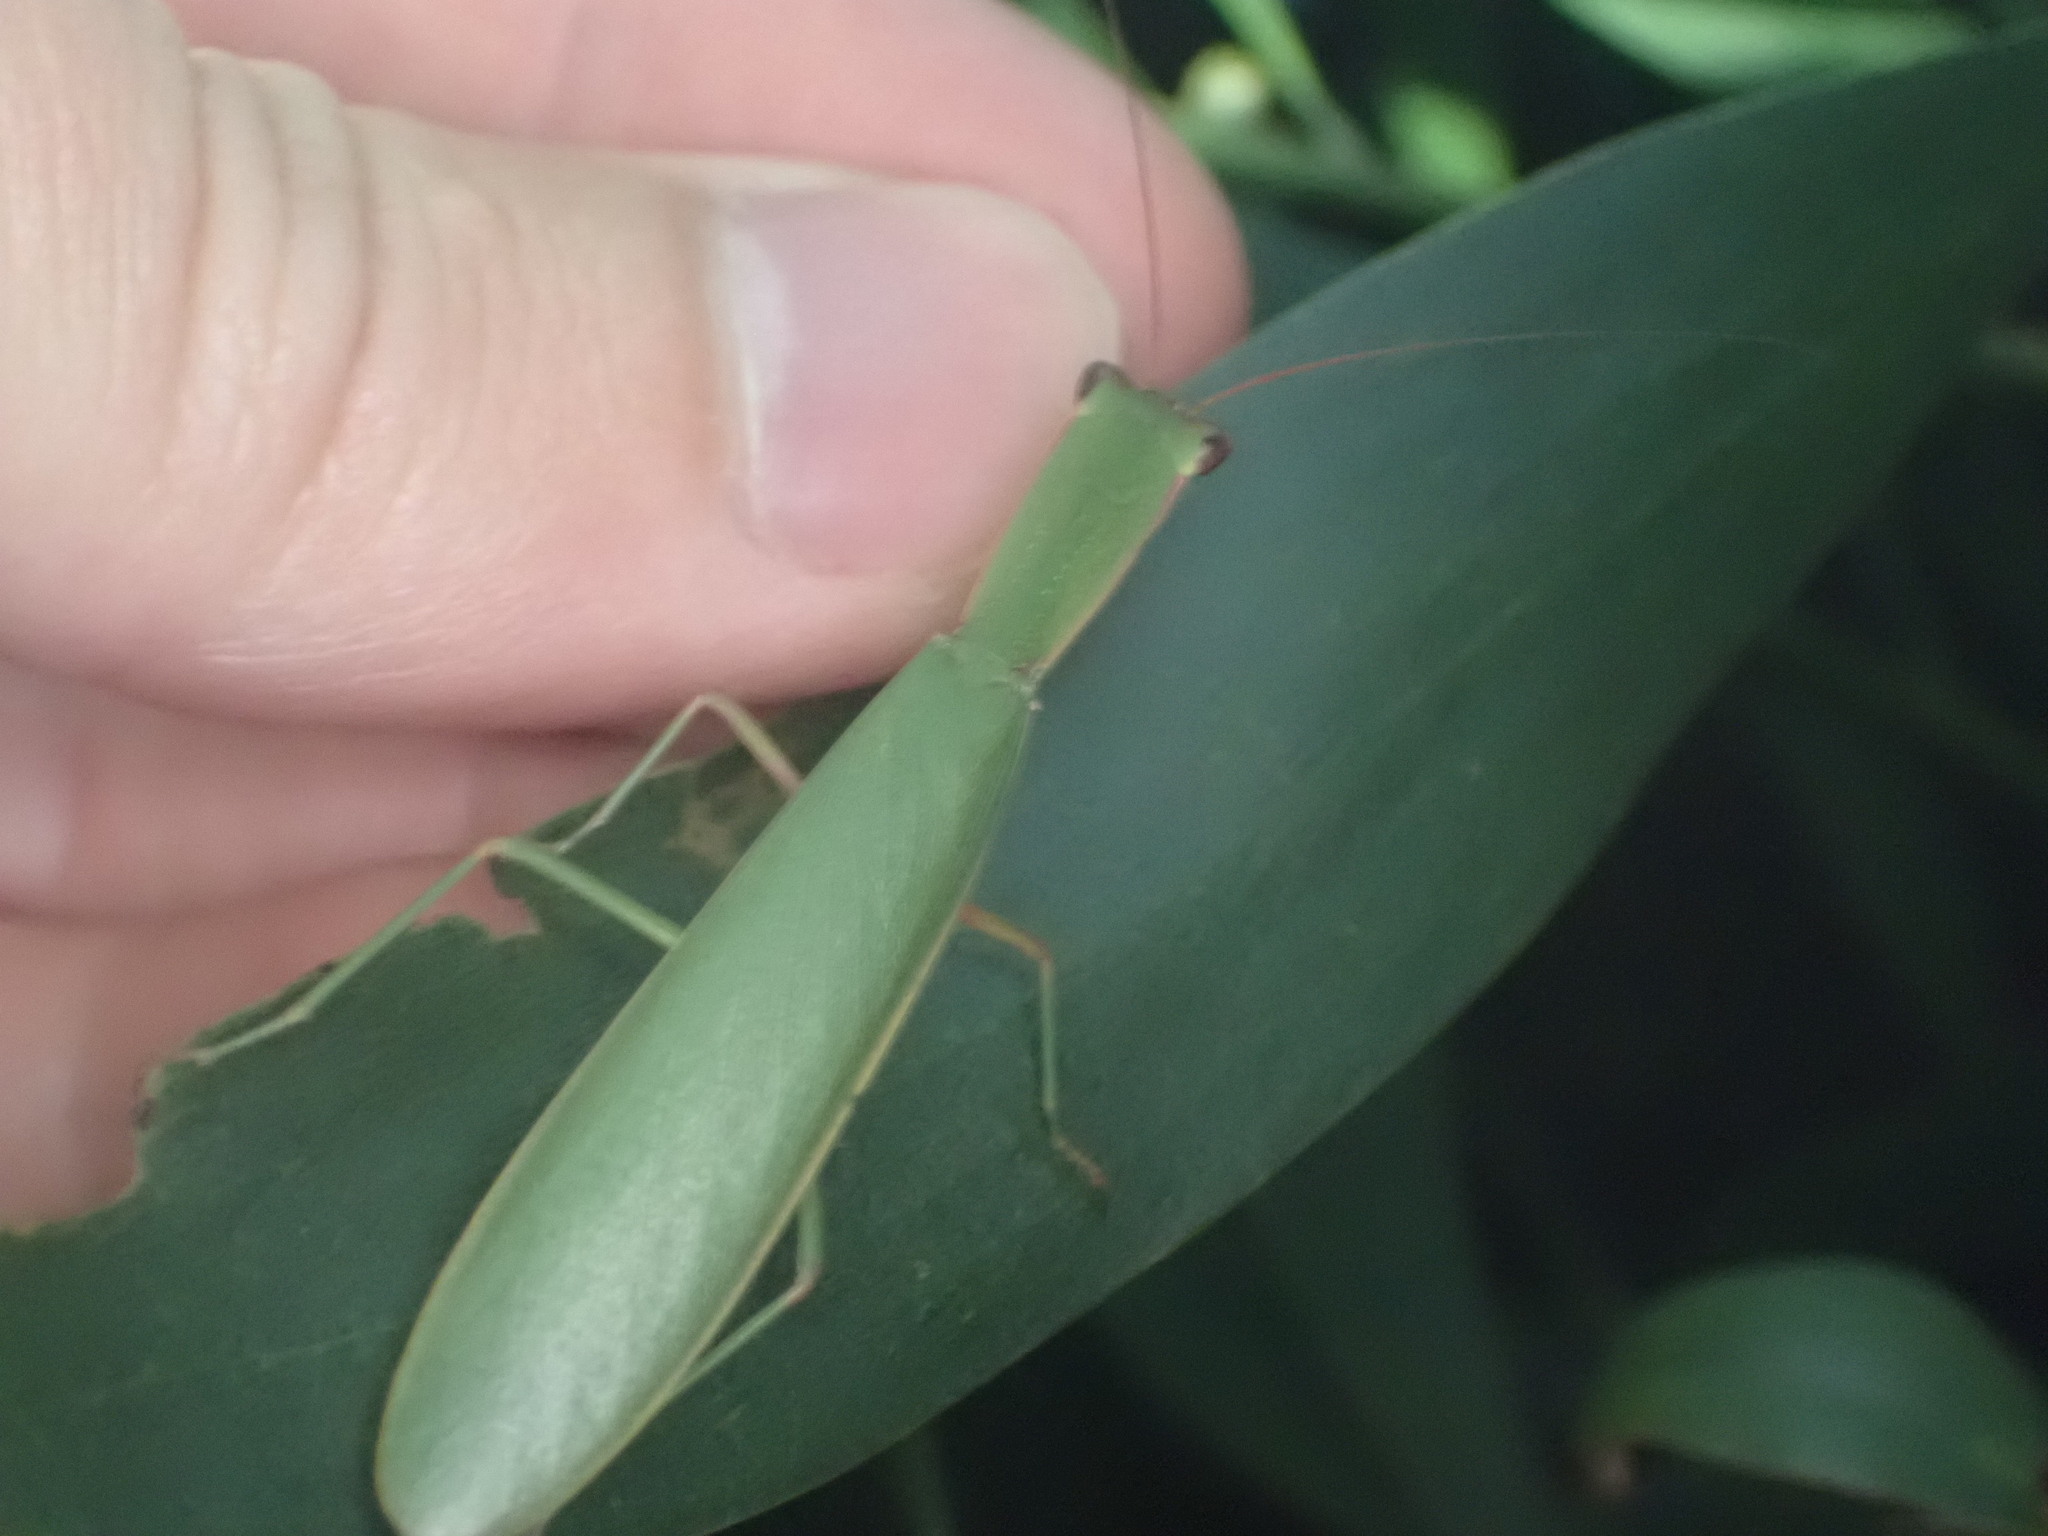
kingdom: Animalia
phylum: Arthropoda
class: Insecta
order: Mantodea
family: Mantidae
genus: Orthodera
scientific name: Orthodera novaezealandiae
